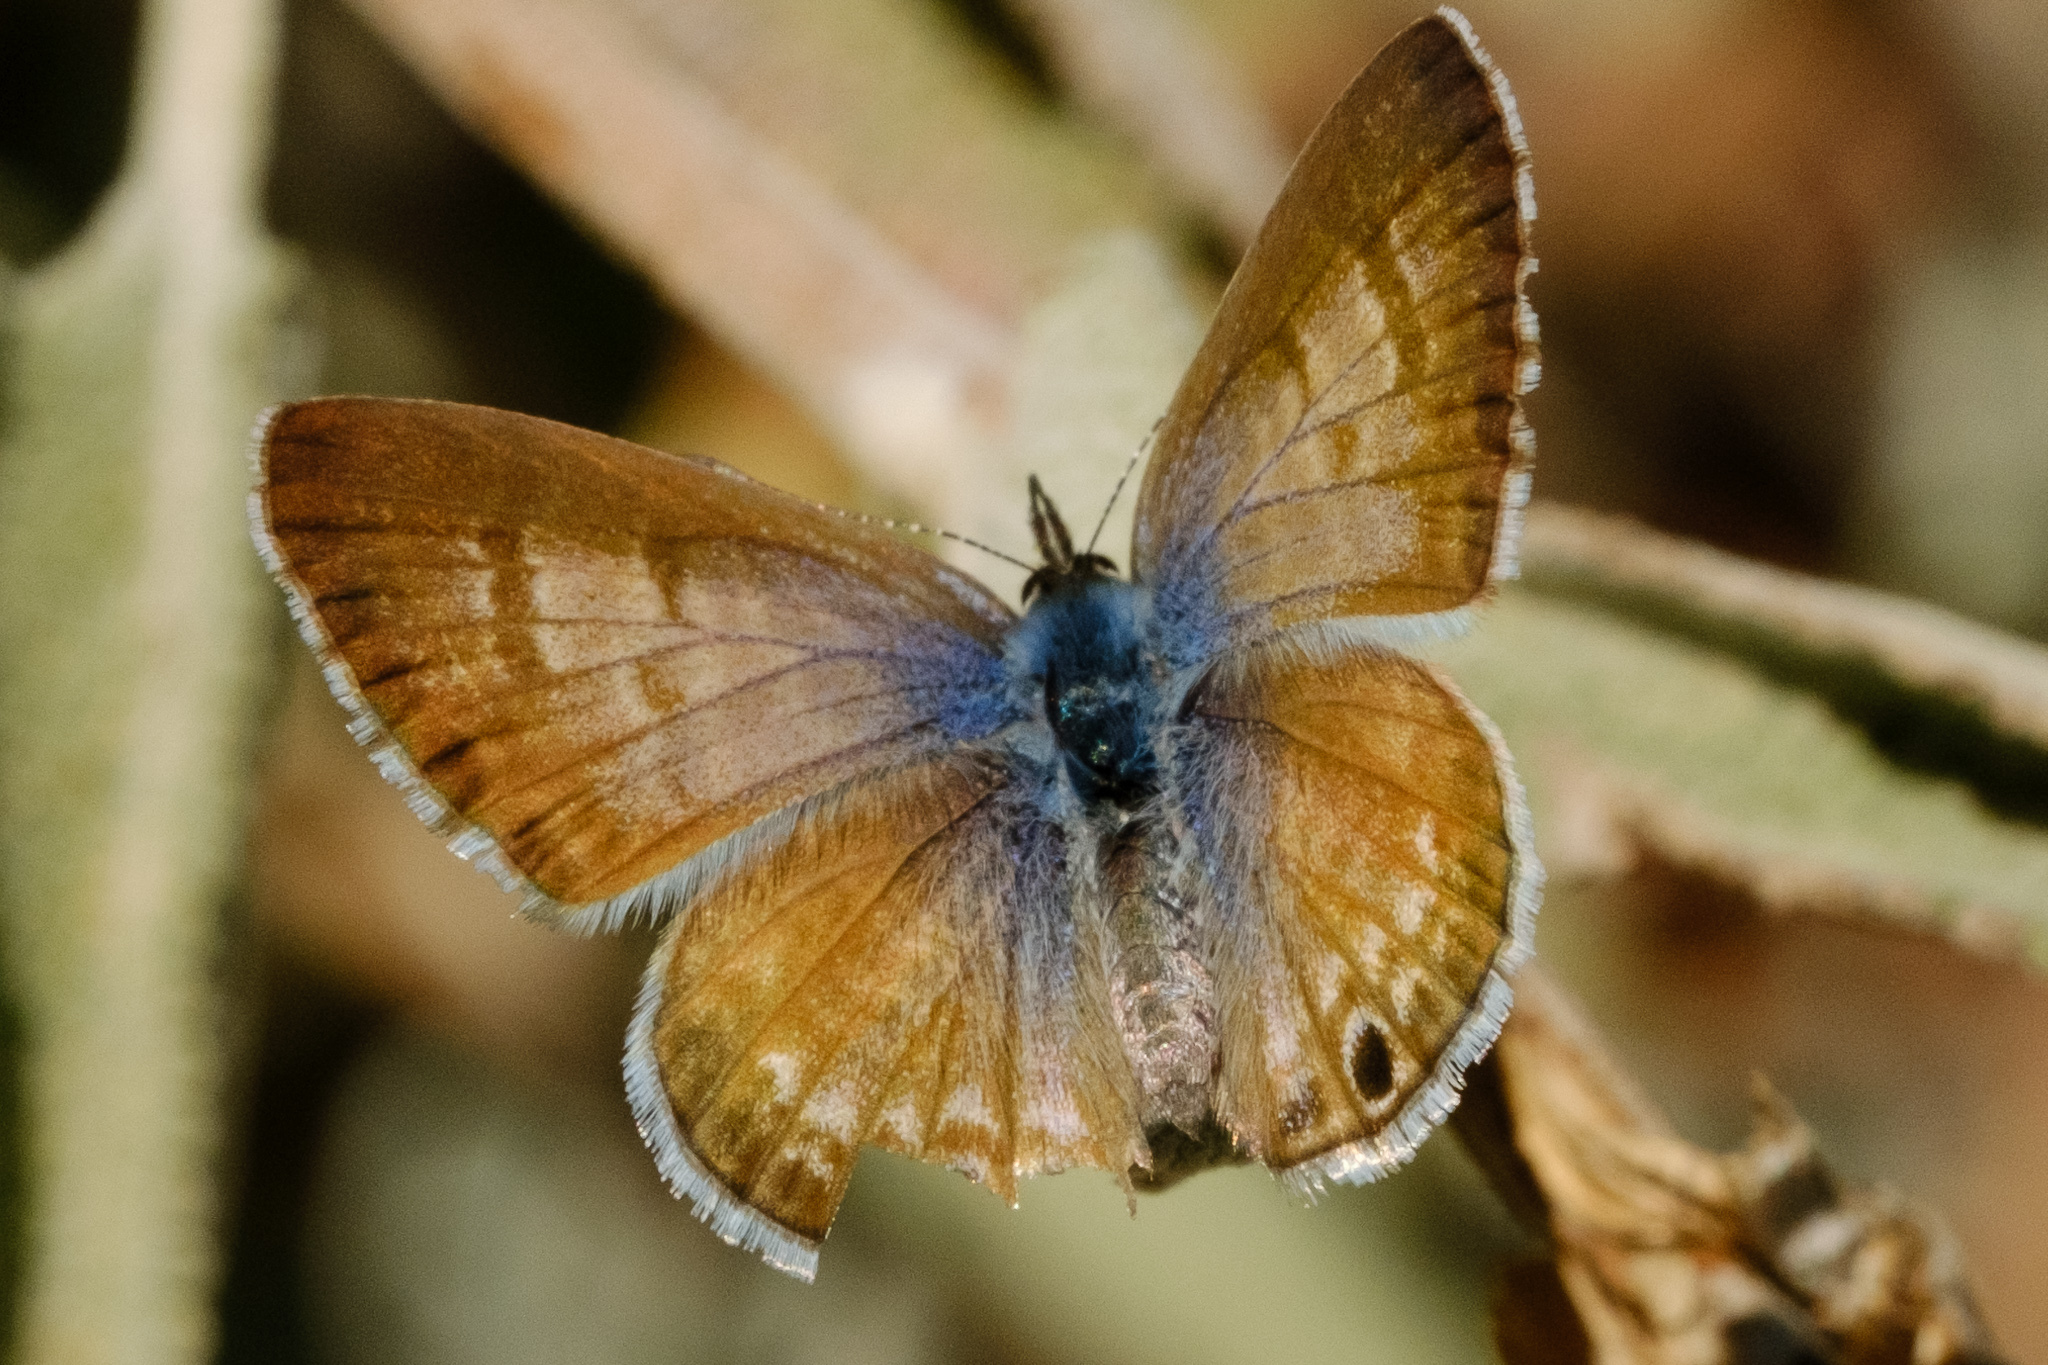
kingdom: Animalia
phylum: Arthropoda
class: Insecta
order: Lepidoptera
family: Lycaenidae
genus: Leptotes
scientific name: Leptotes marina
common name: Marine blue
